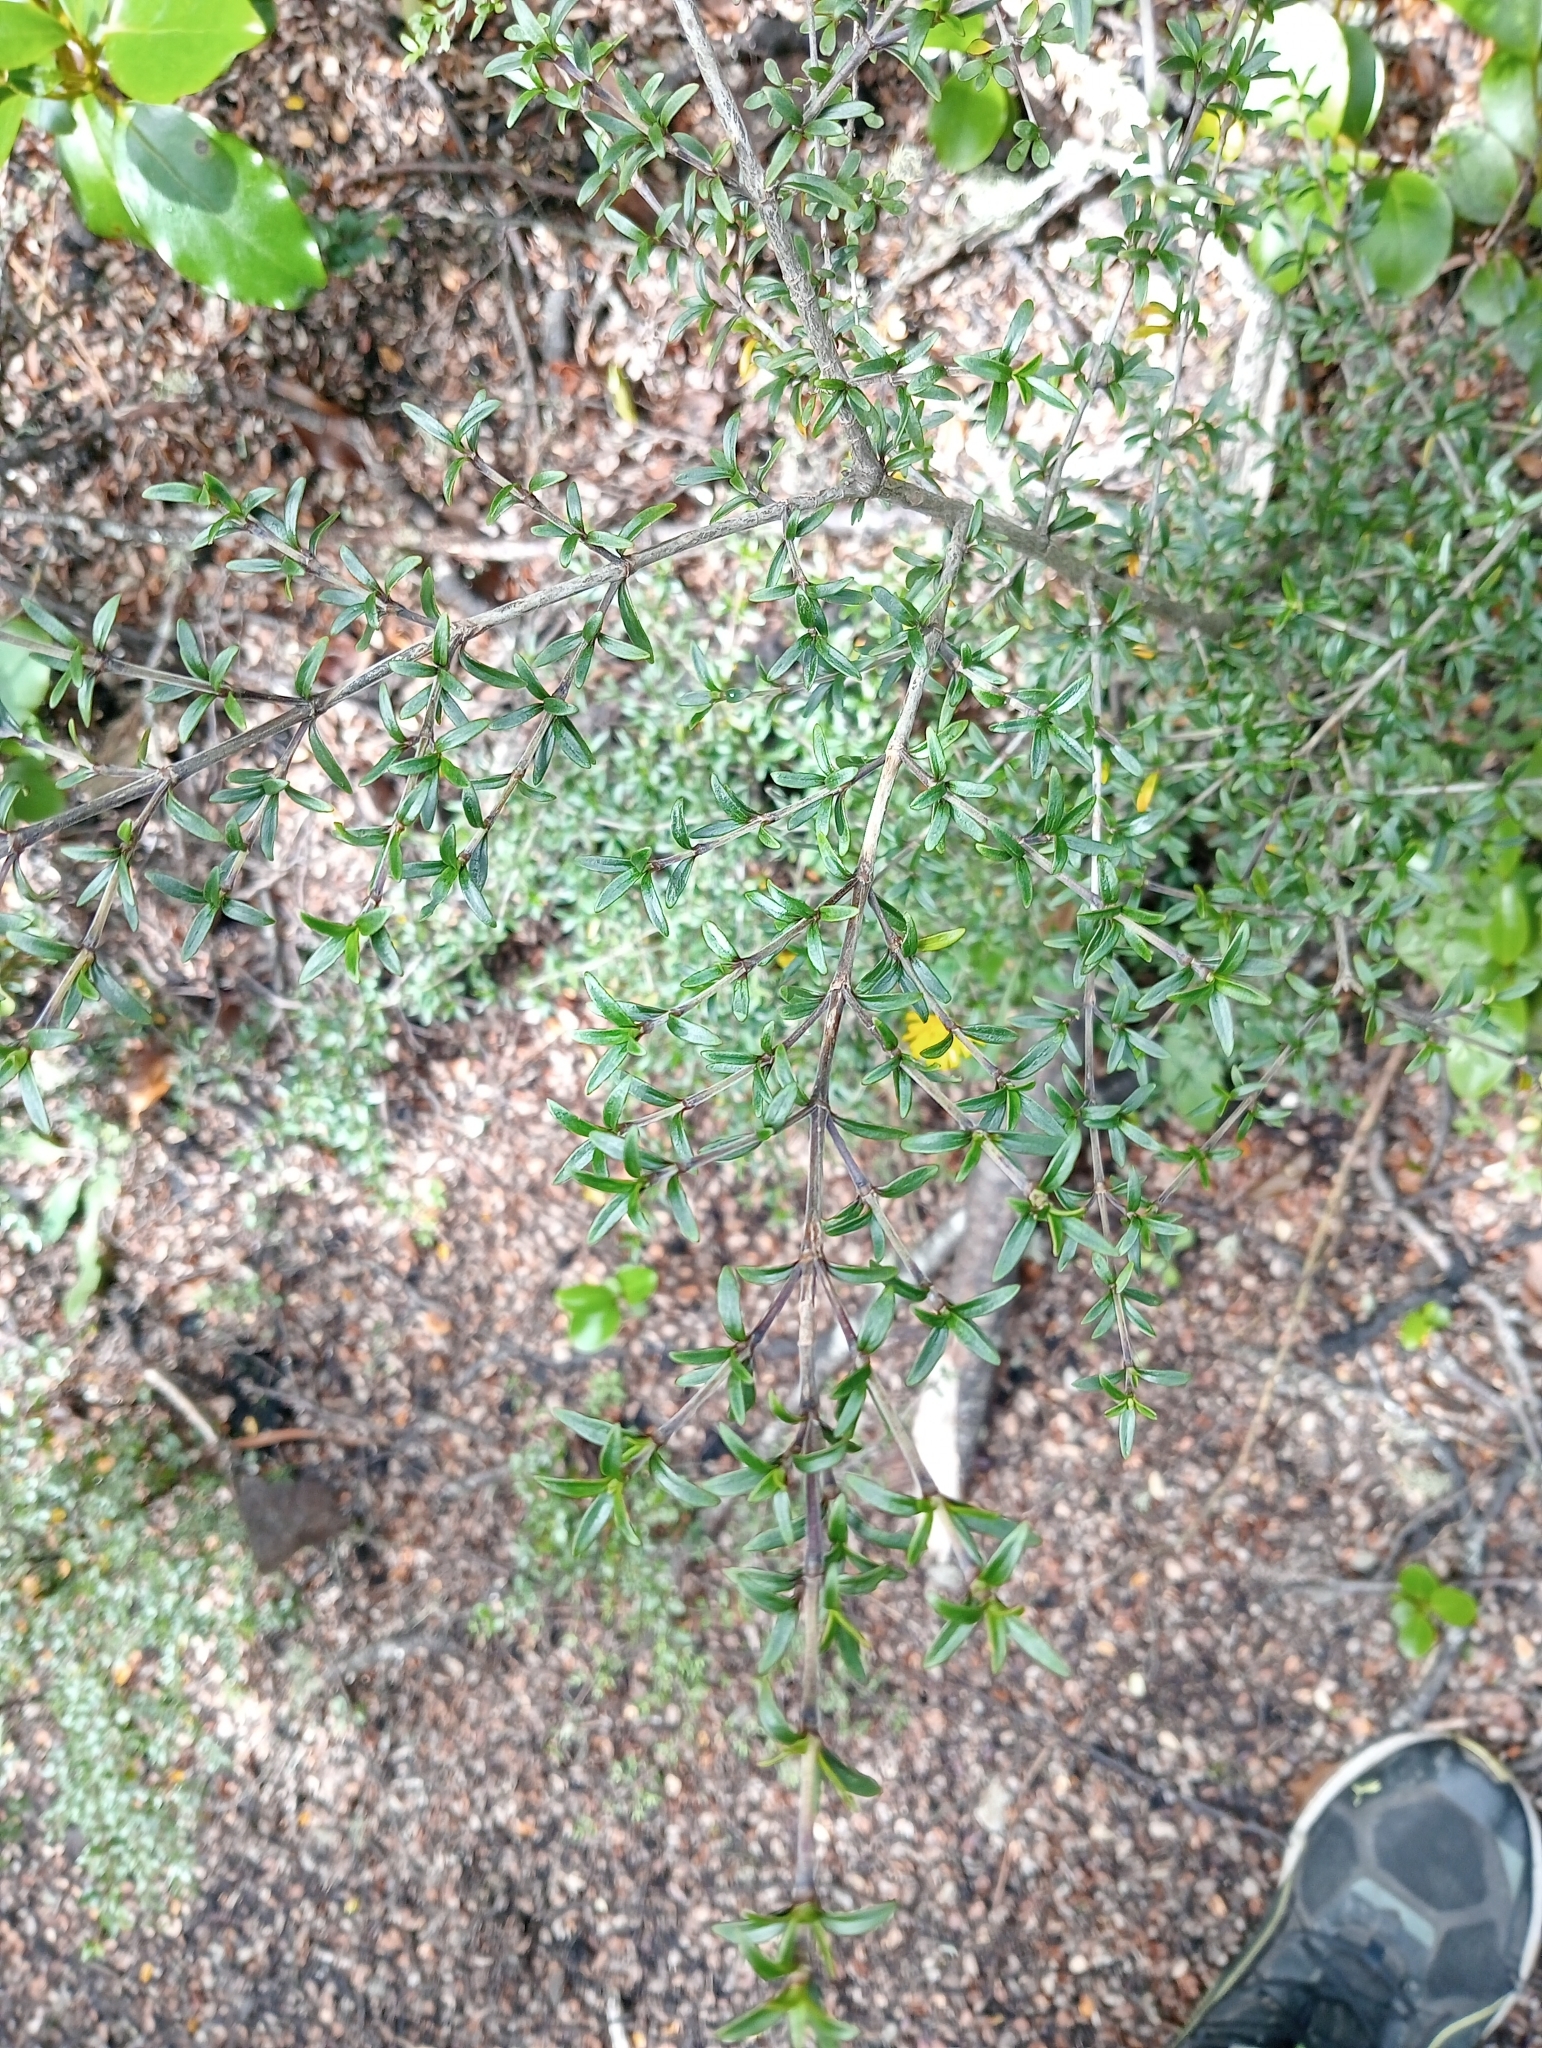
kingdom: Plantae
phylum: Tracheophyta
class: Magnoliopsida
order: Gentianales
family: Rubiaceae
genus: Coprosma
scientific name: Coprosma pseudocuneata
